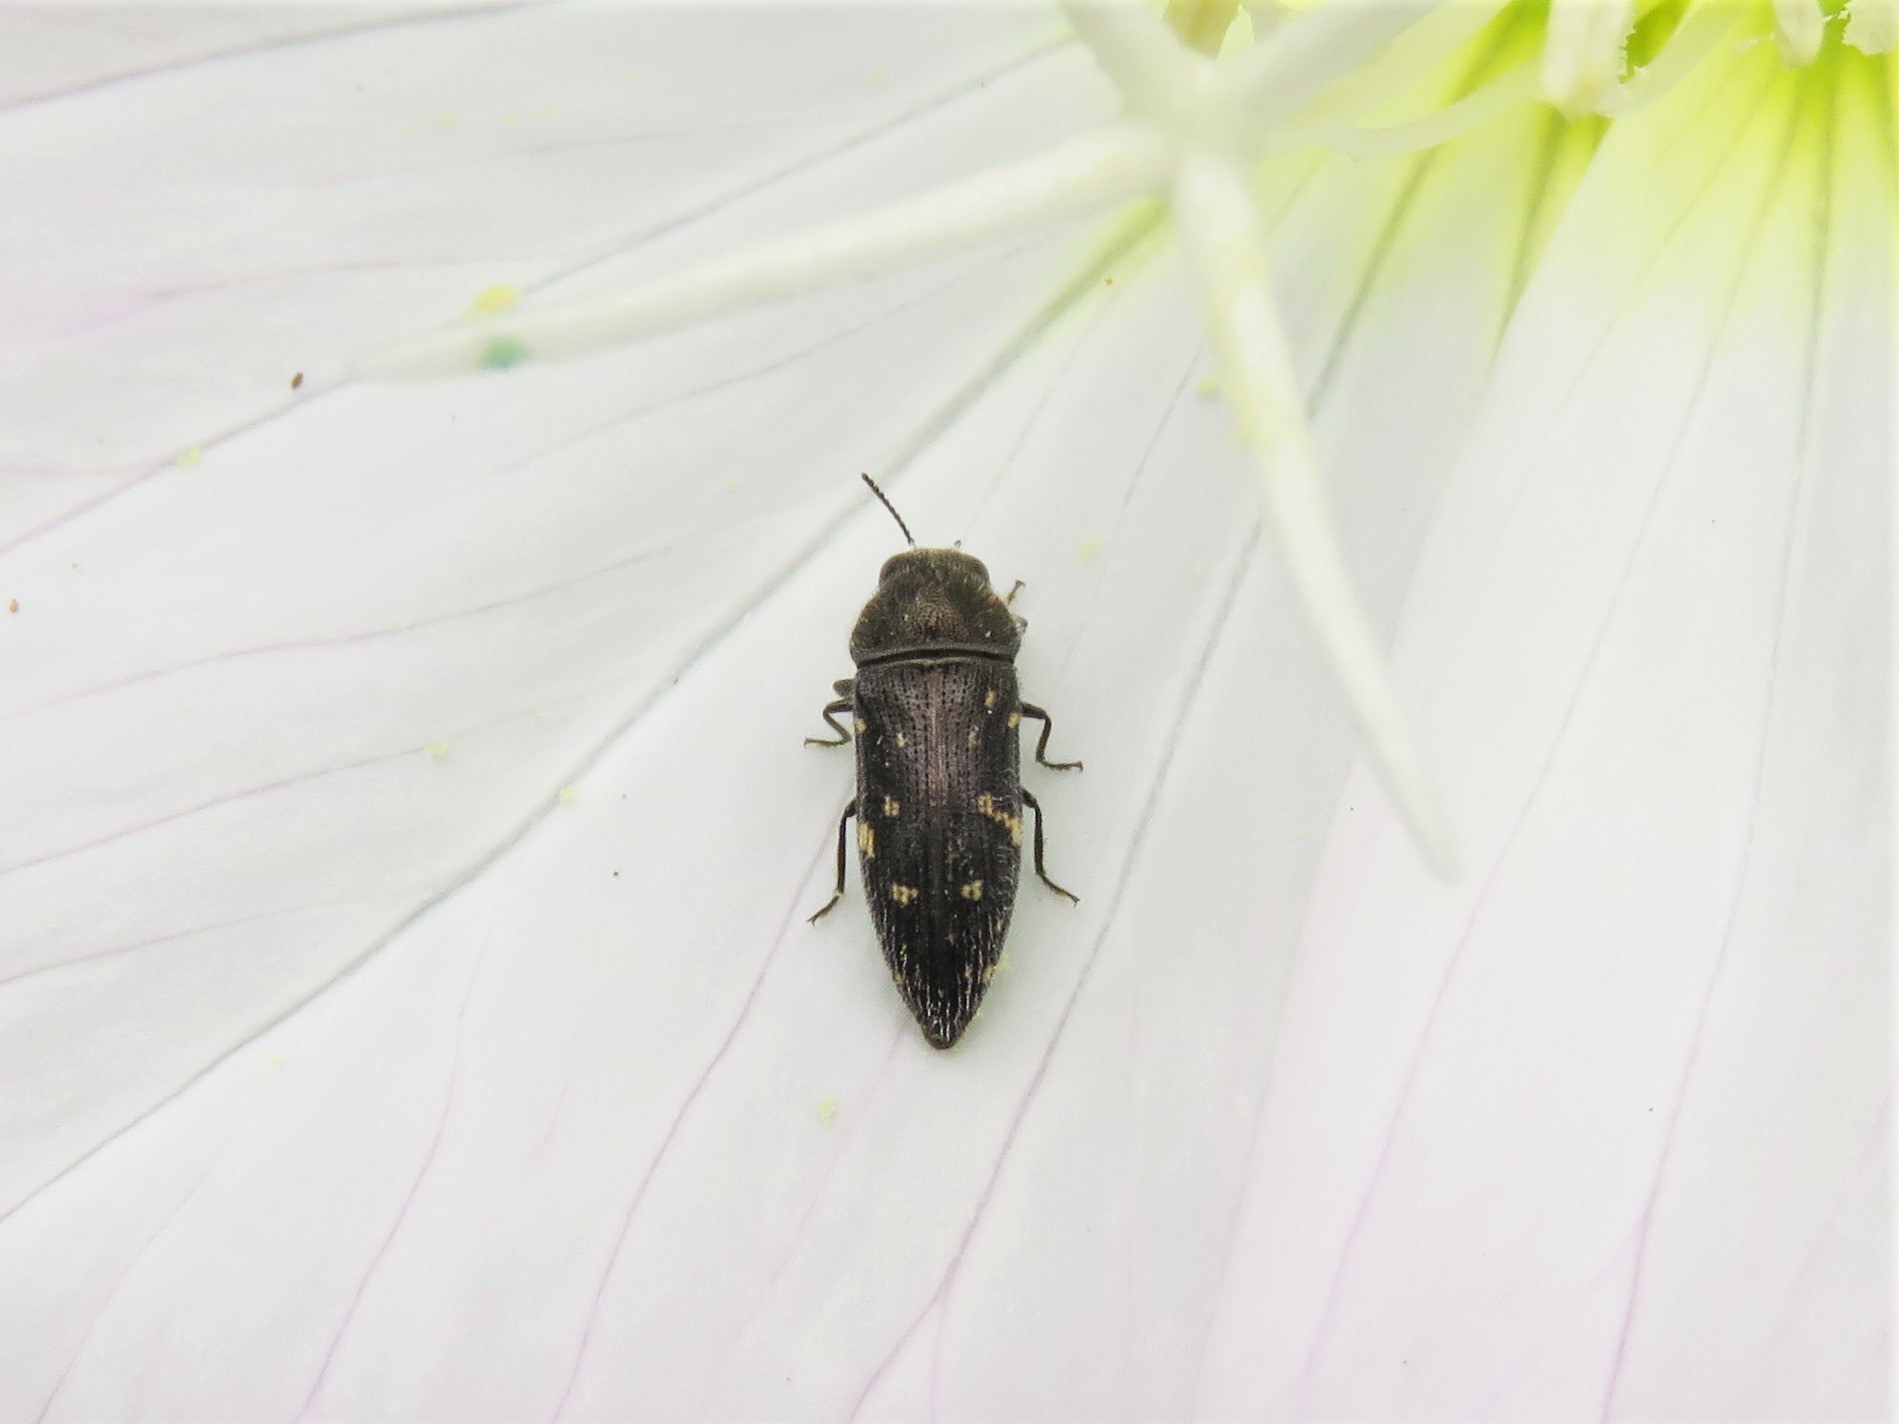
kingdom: Animalia
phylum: Arthropoda
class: Insecta
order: Coleoptera
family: Buprestidae
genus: Acmaeodera
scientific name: Acmaeodera tubulus
